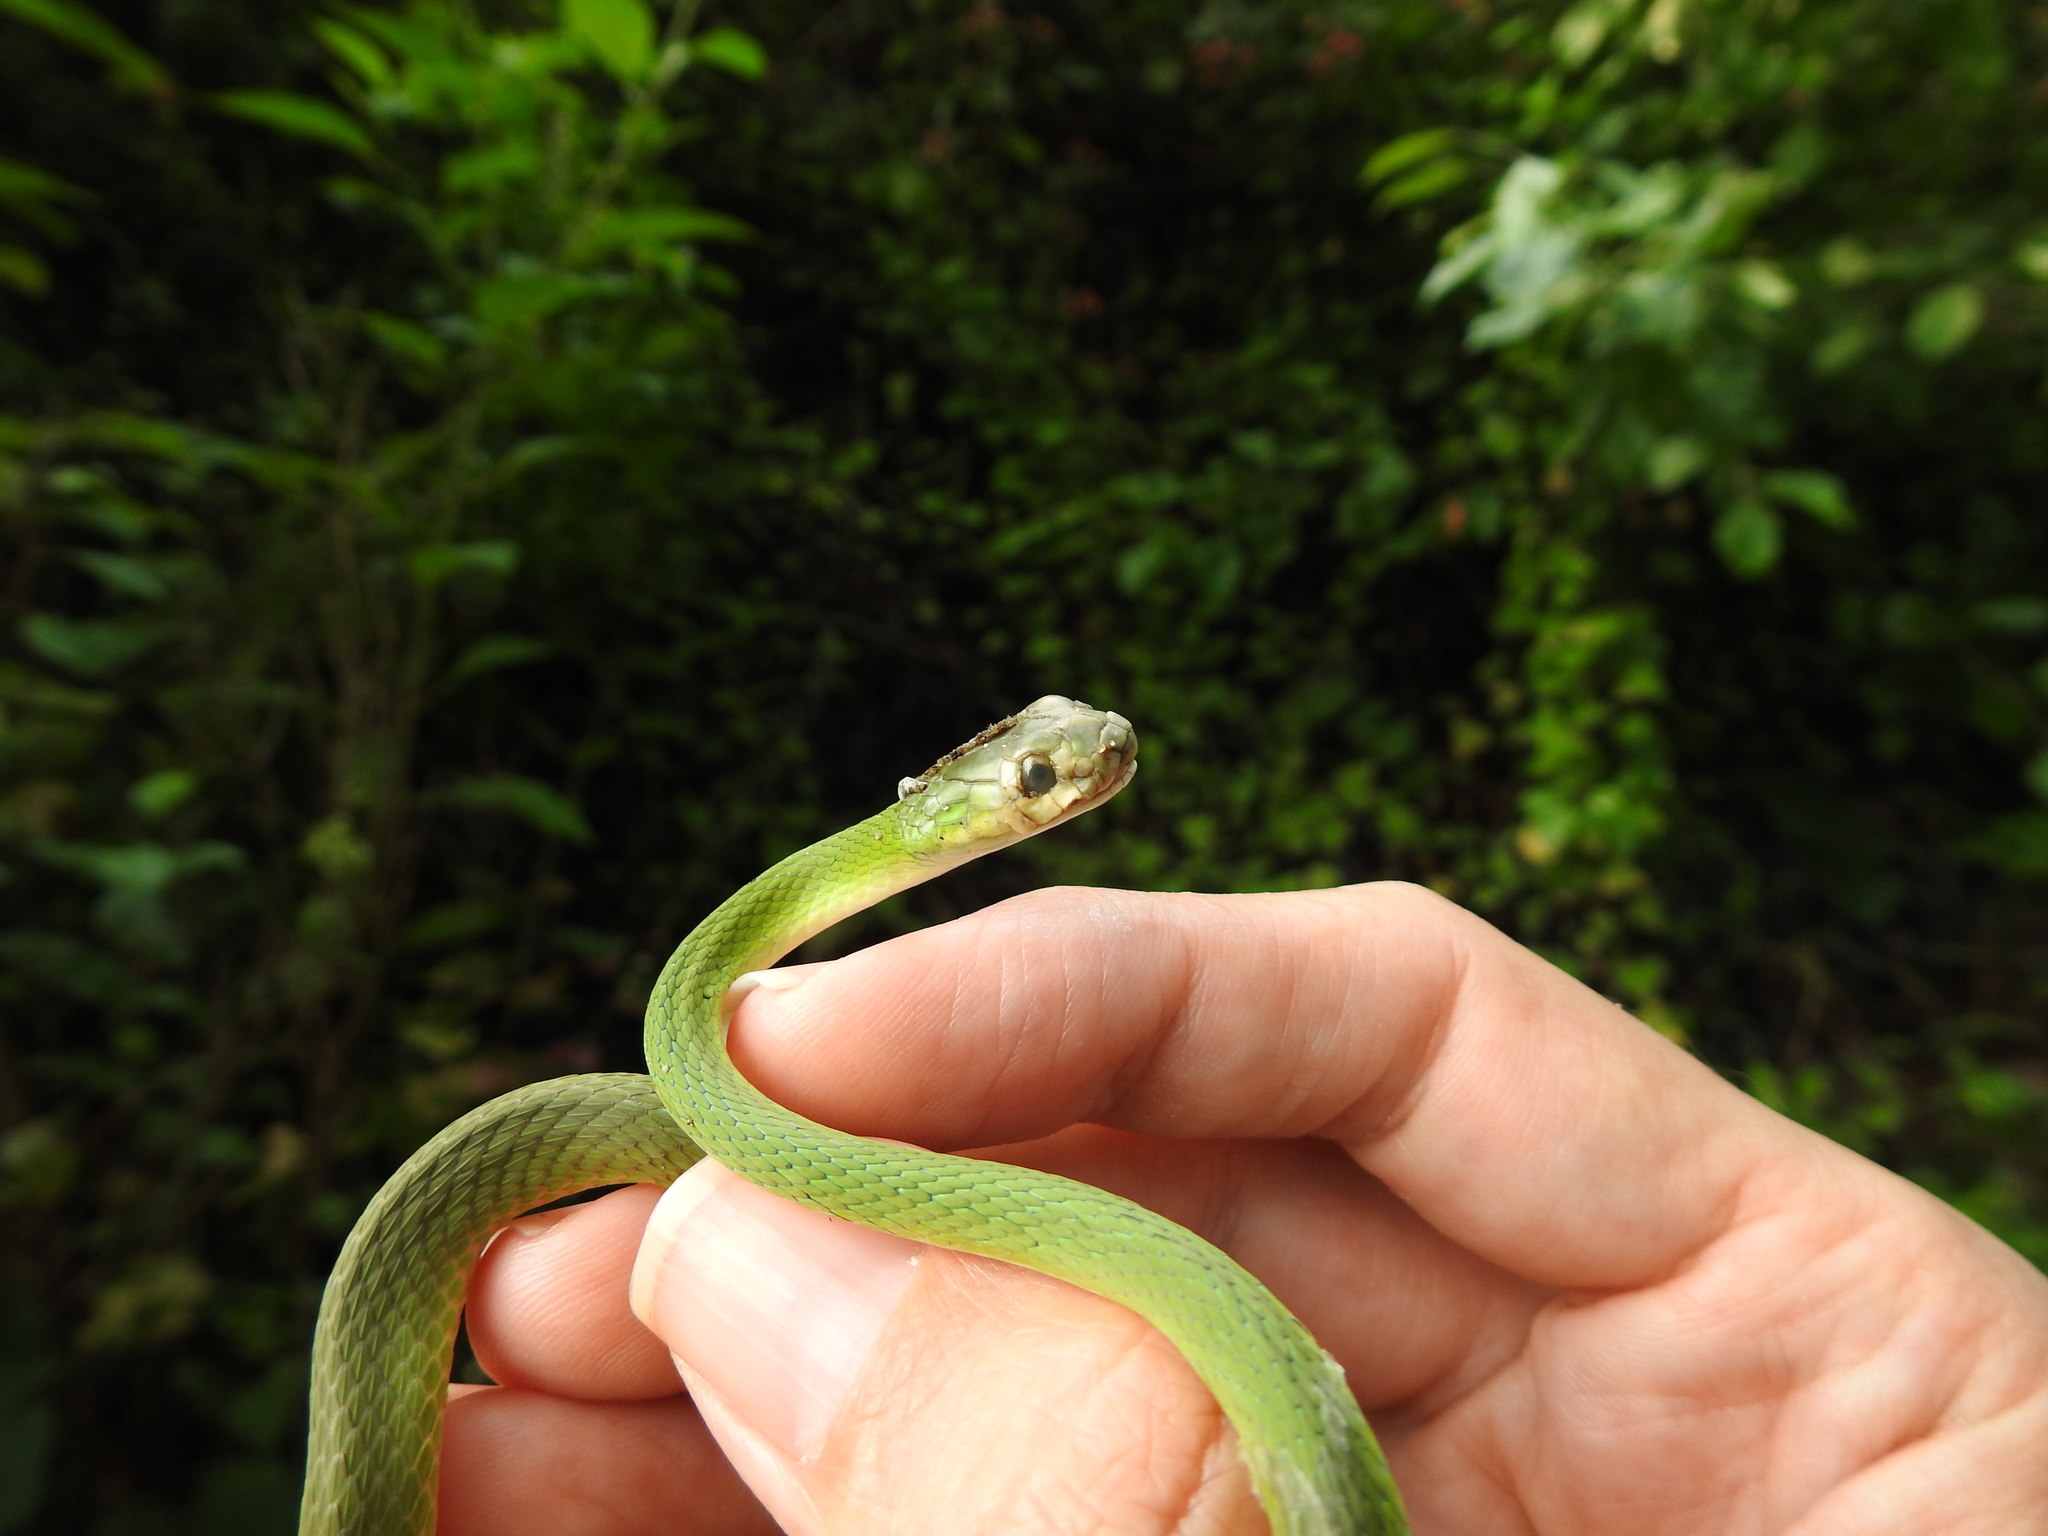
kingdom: Animalia
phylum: Chordata
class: Squamata
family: Colubridae
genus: Opheodrys
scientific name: Opheodrys aestivus
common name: Rough greensnake
